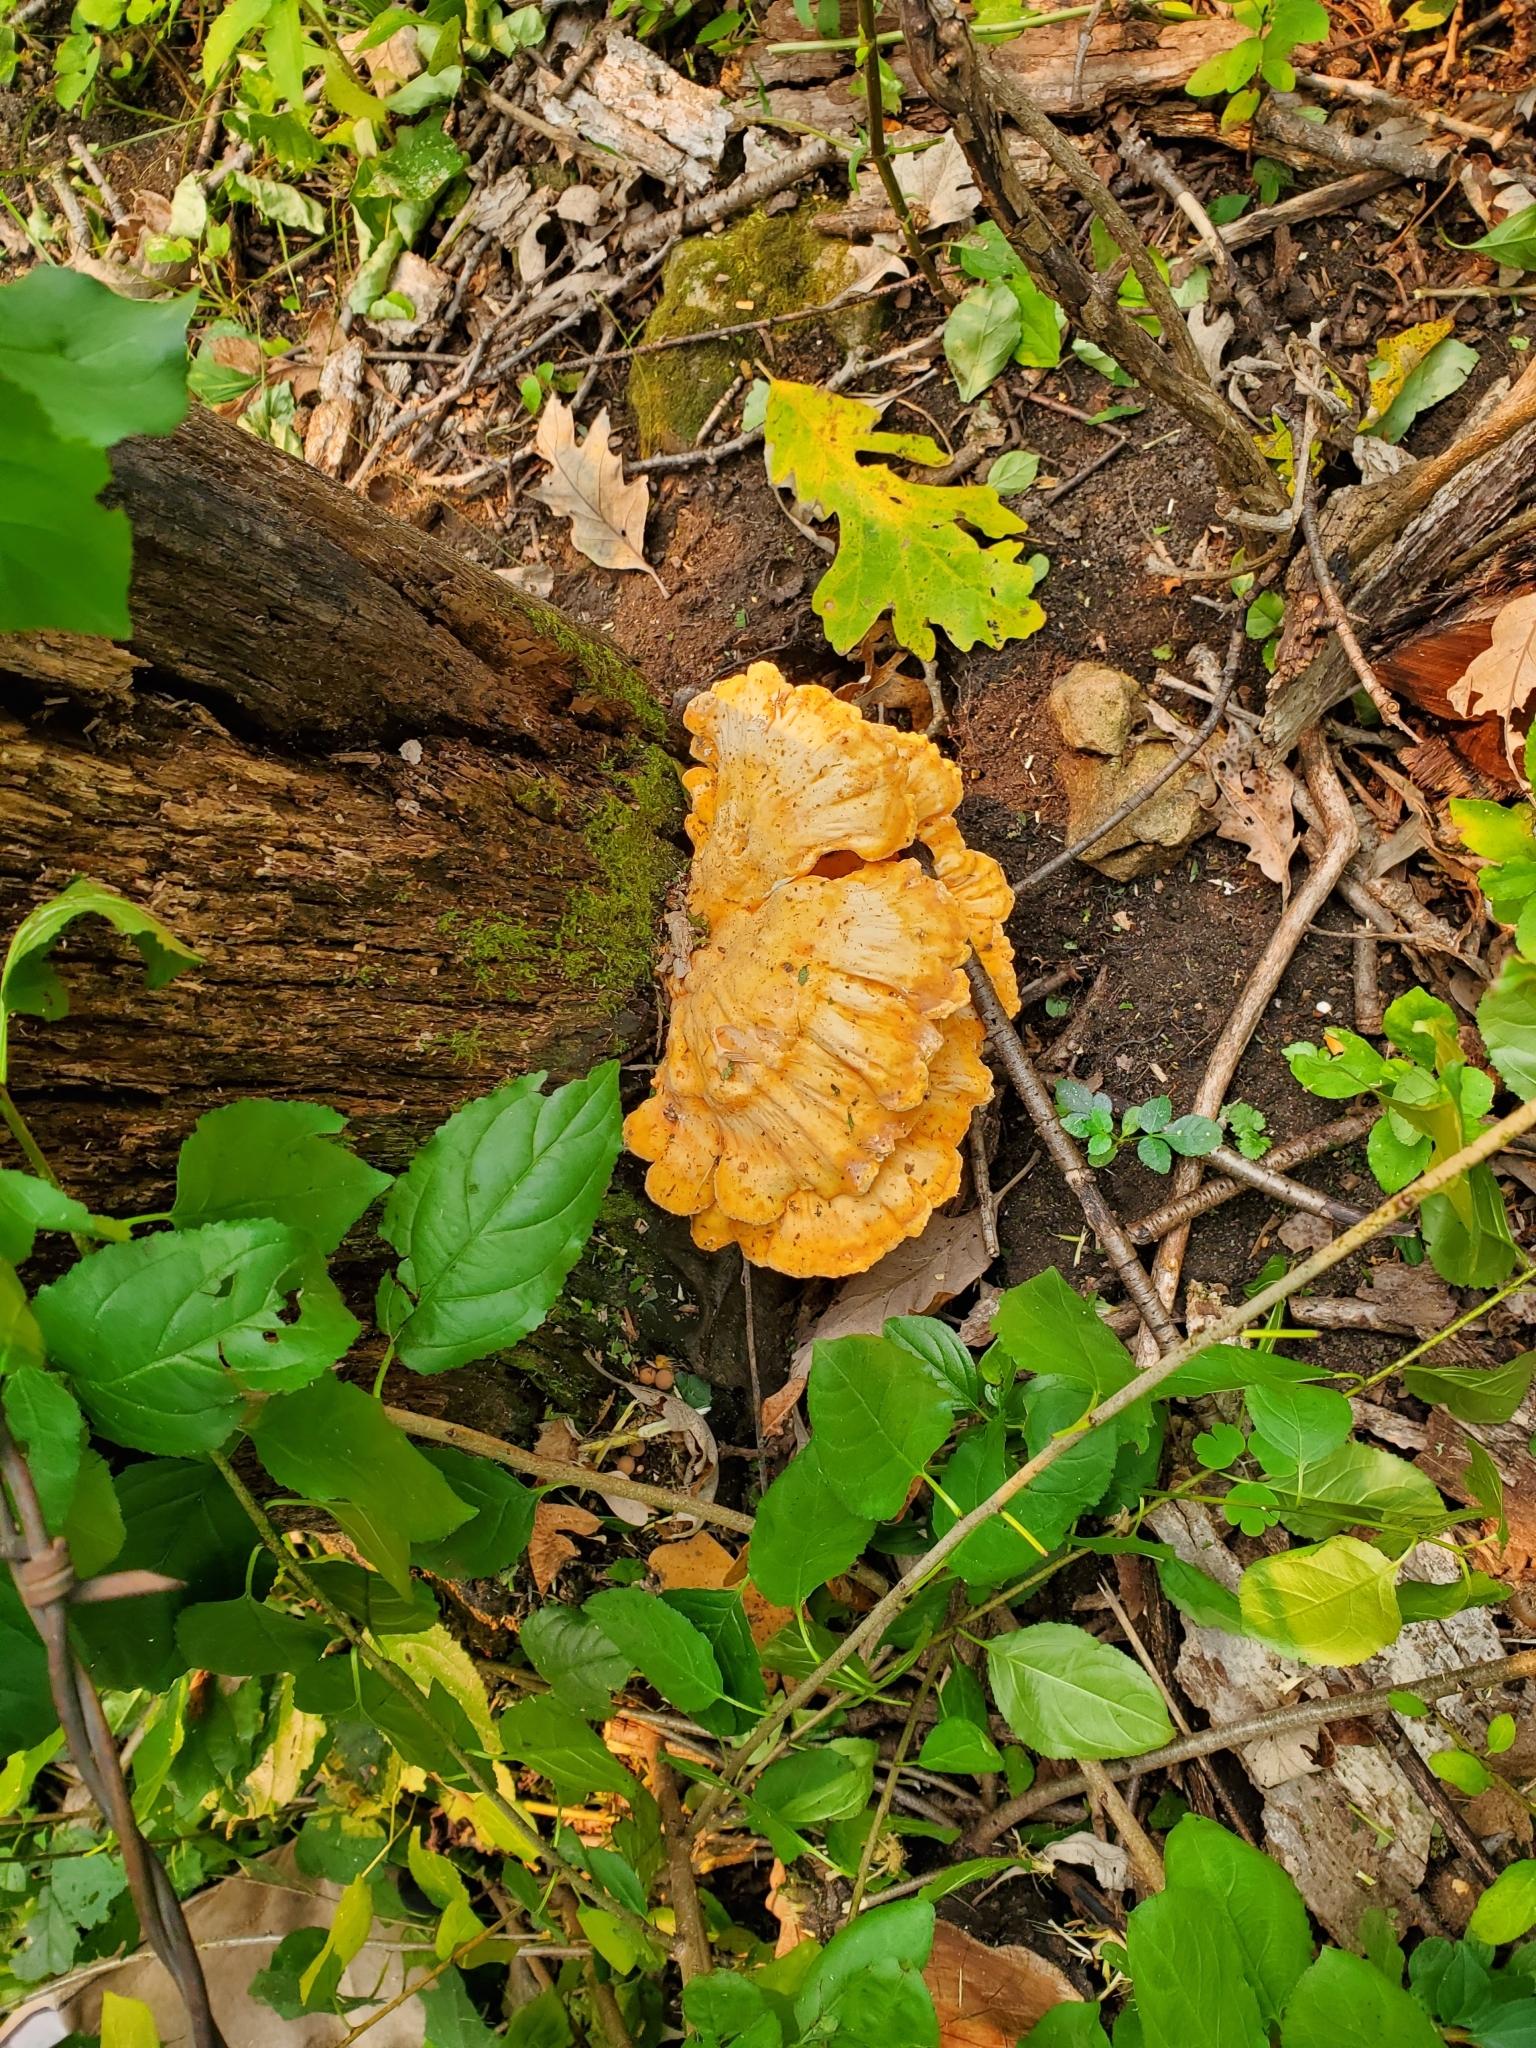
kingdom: Fungi
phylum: Basidiomycota
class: Agaricomycetes
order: Polyporales
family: Laetiporaceae
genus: Laetiporus
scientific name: Laetiporus sulphureus
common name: Chicken of the woods
